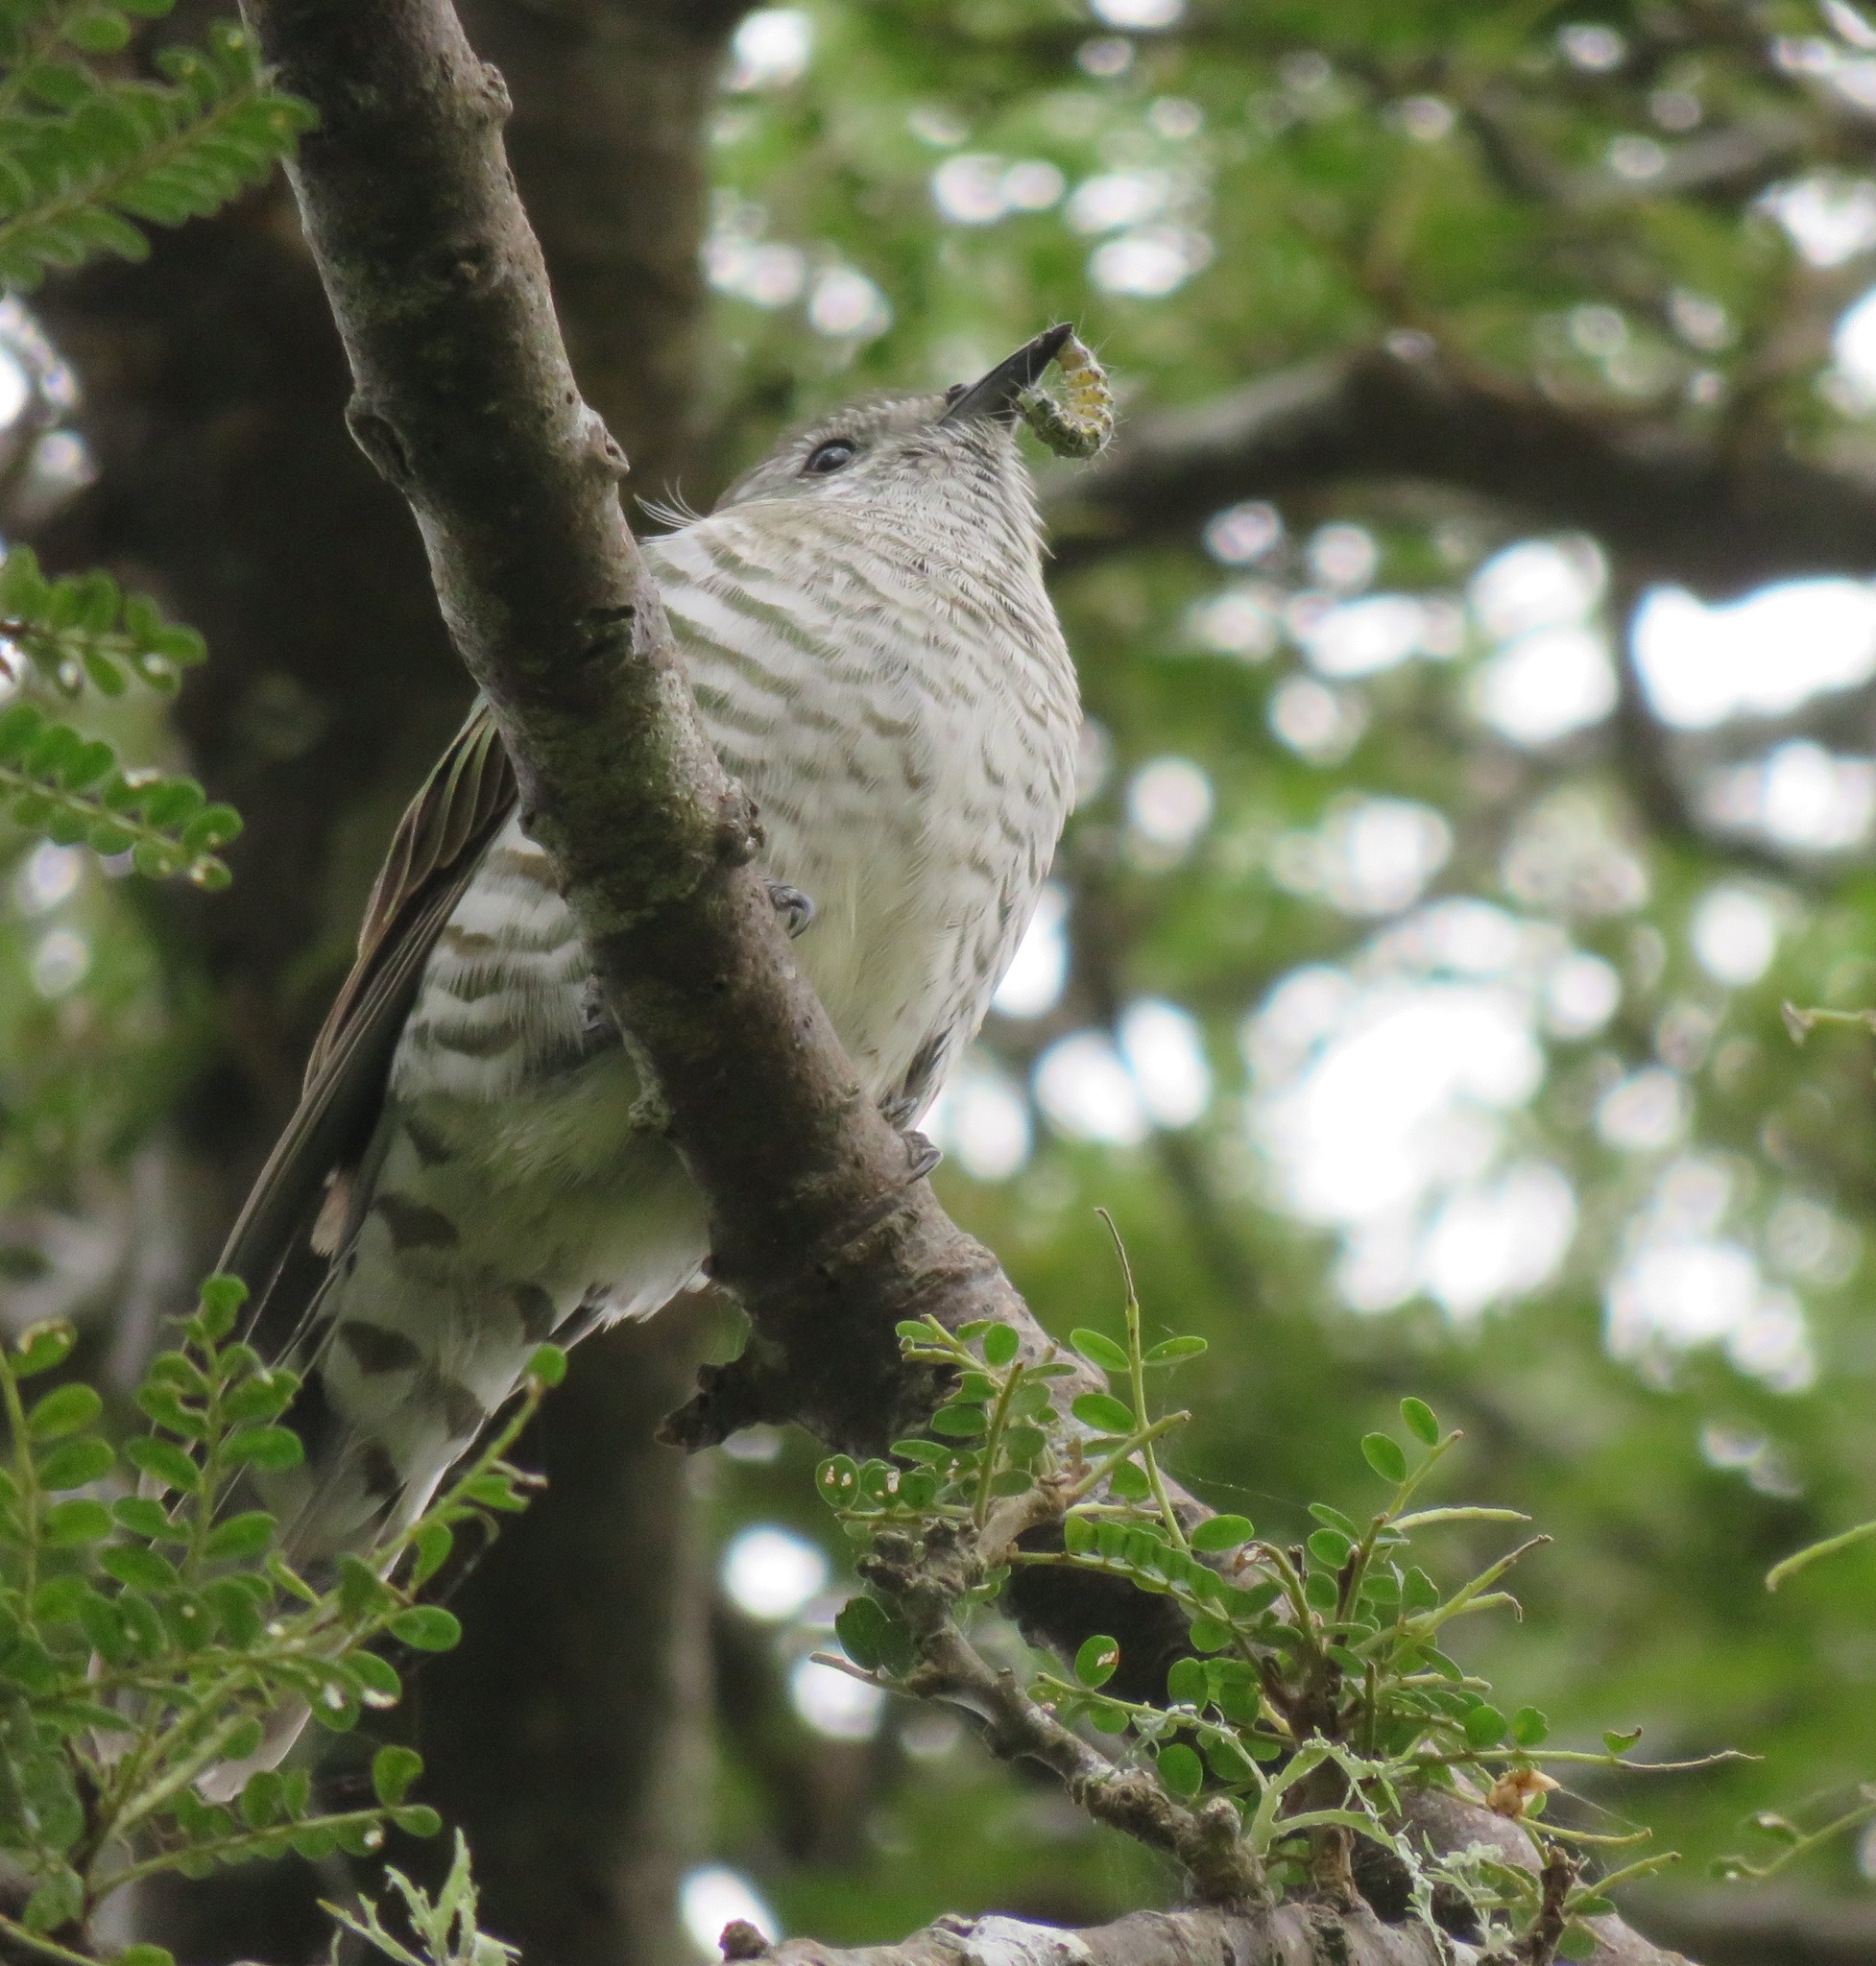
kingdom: Animalia
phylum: Chordata
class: Aves
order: Cuculiformes
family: Cuculidae
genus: Chrysococcyx
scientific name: Chrysococcyx lucidus
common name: Shining bronze cuckoo
